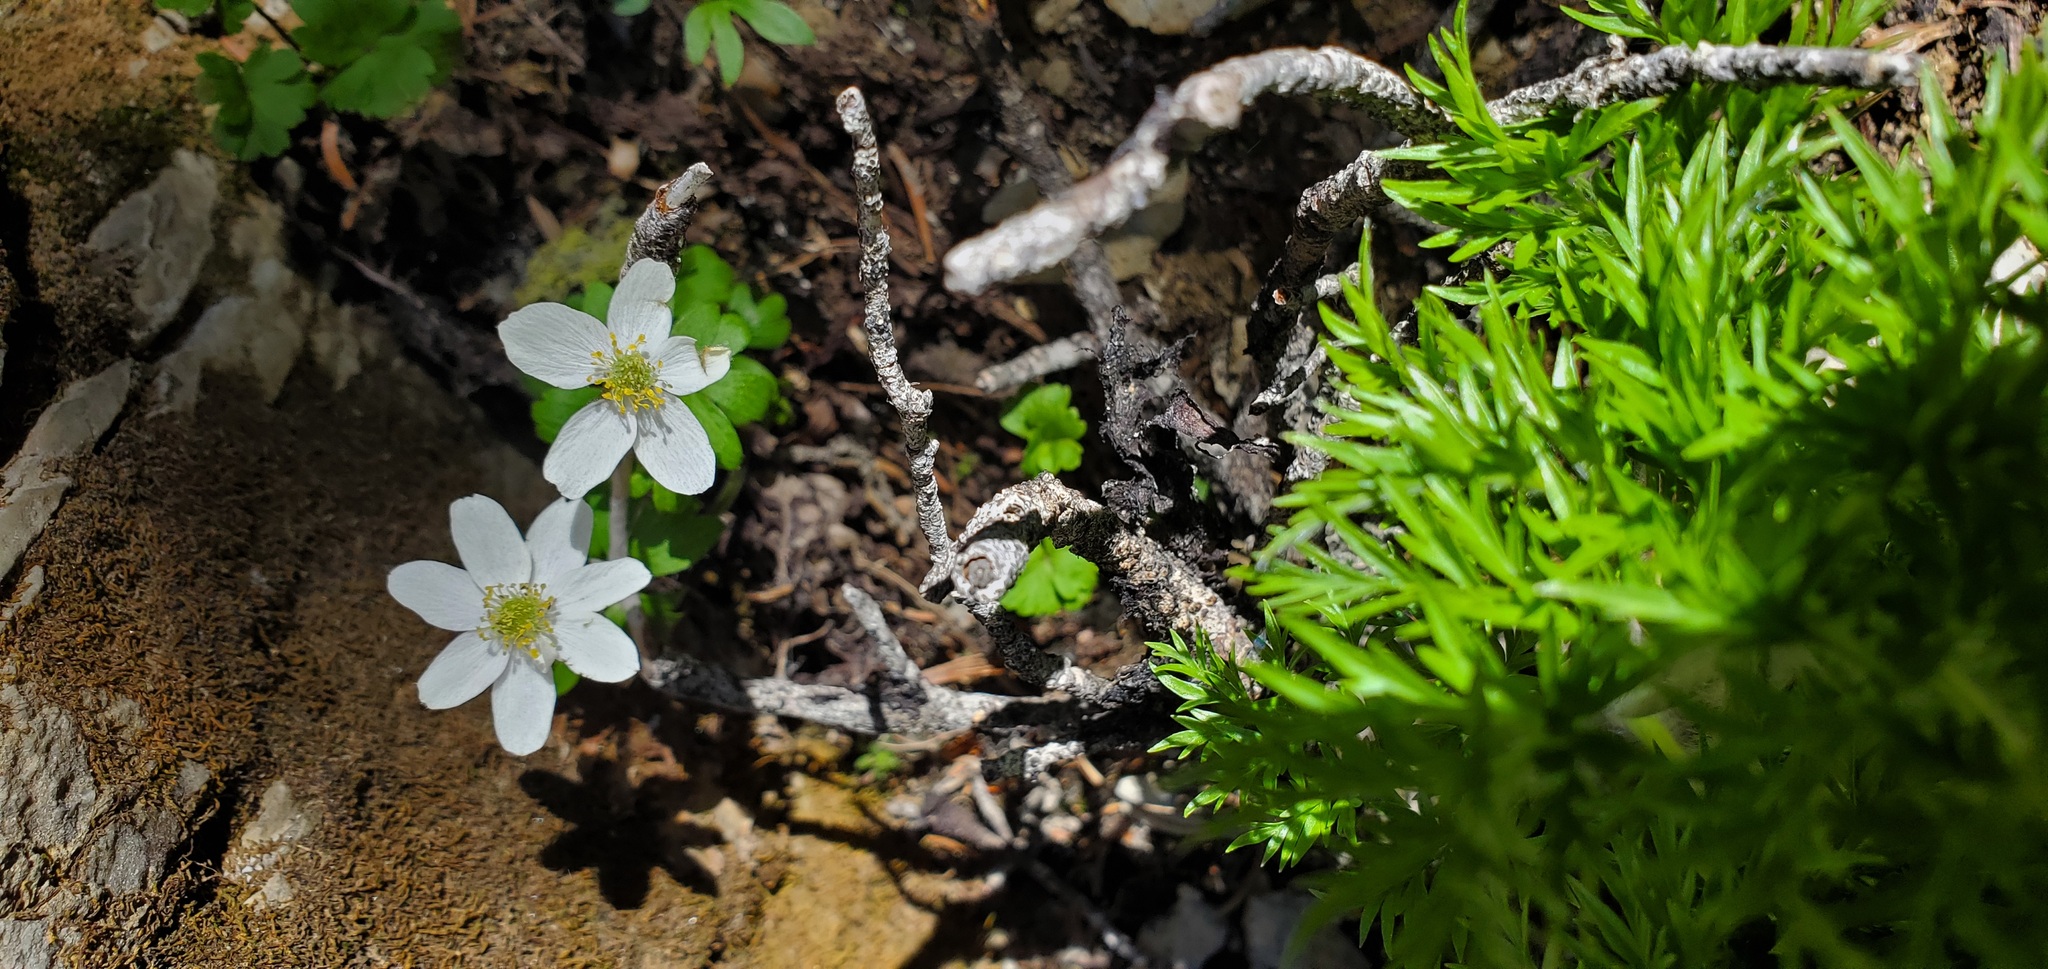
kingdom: Plantae
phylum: Tracheophyta
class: Magnoliopsida
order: Ranunculales
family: Ranunculaceae
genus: Anemone
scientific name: Anemone parviflora
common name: Northern anemone
